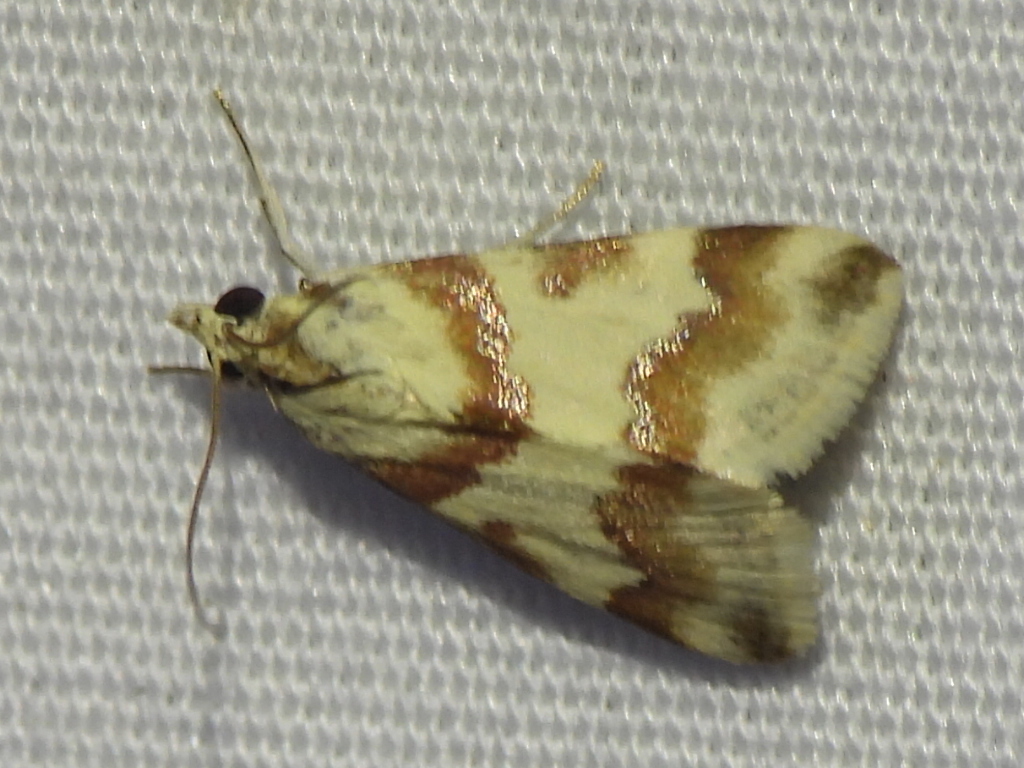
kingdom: Animalia
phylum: Arthropoda
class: Insecta
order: Lepidoptera
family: Crambidae
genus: Noctuelia
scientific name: Noctuelia Mimoschinia rufofascialis
